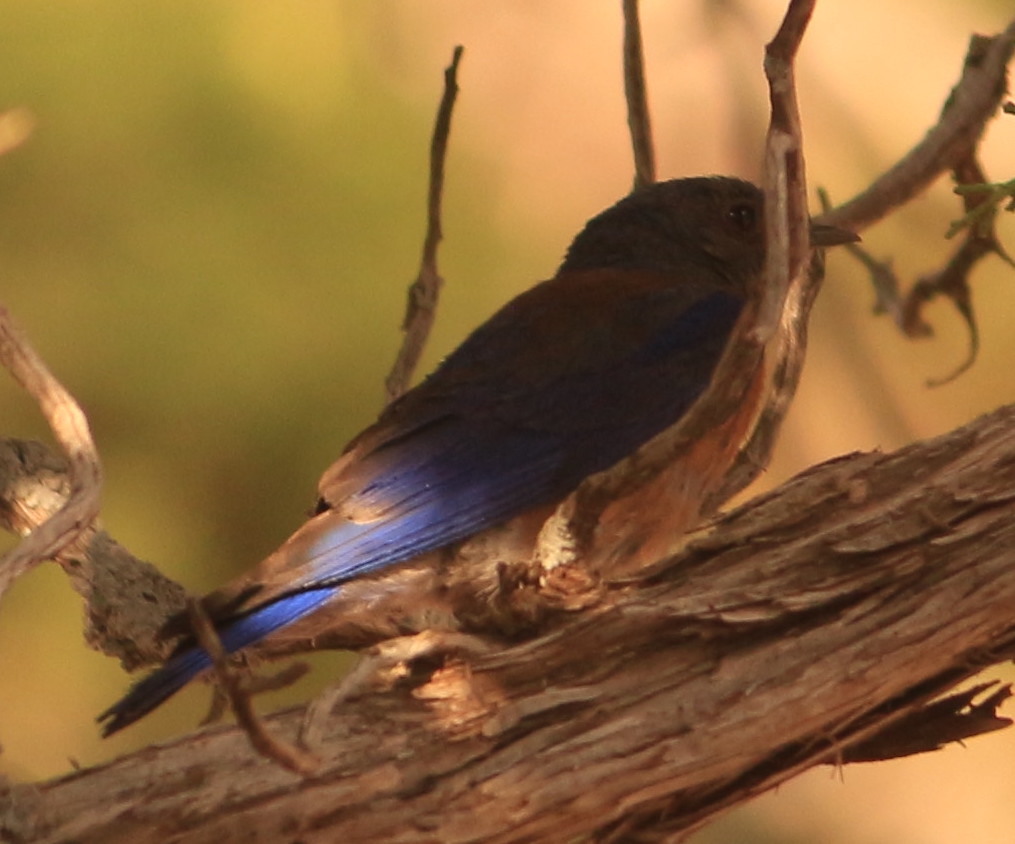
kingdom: Animalia
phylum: Chordata
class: Aves
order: Passeriformes
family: Turdidae
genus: Sialia
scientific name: Sialia mexicana
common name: Western bluebird
